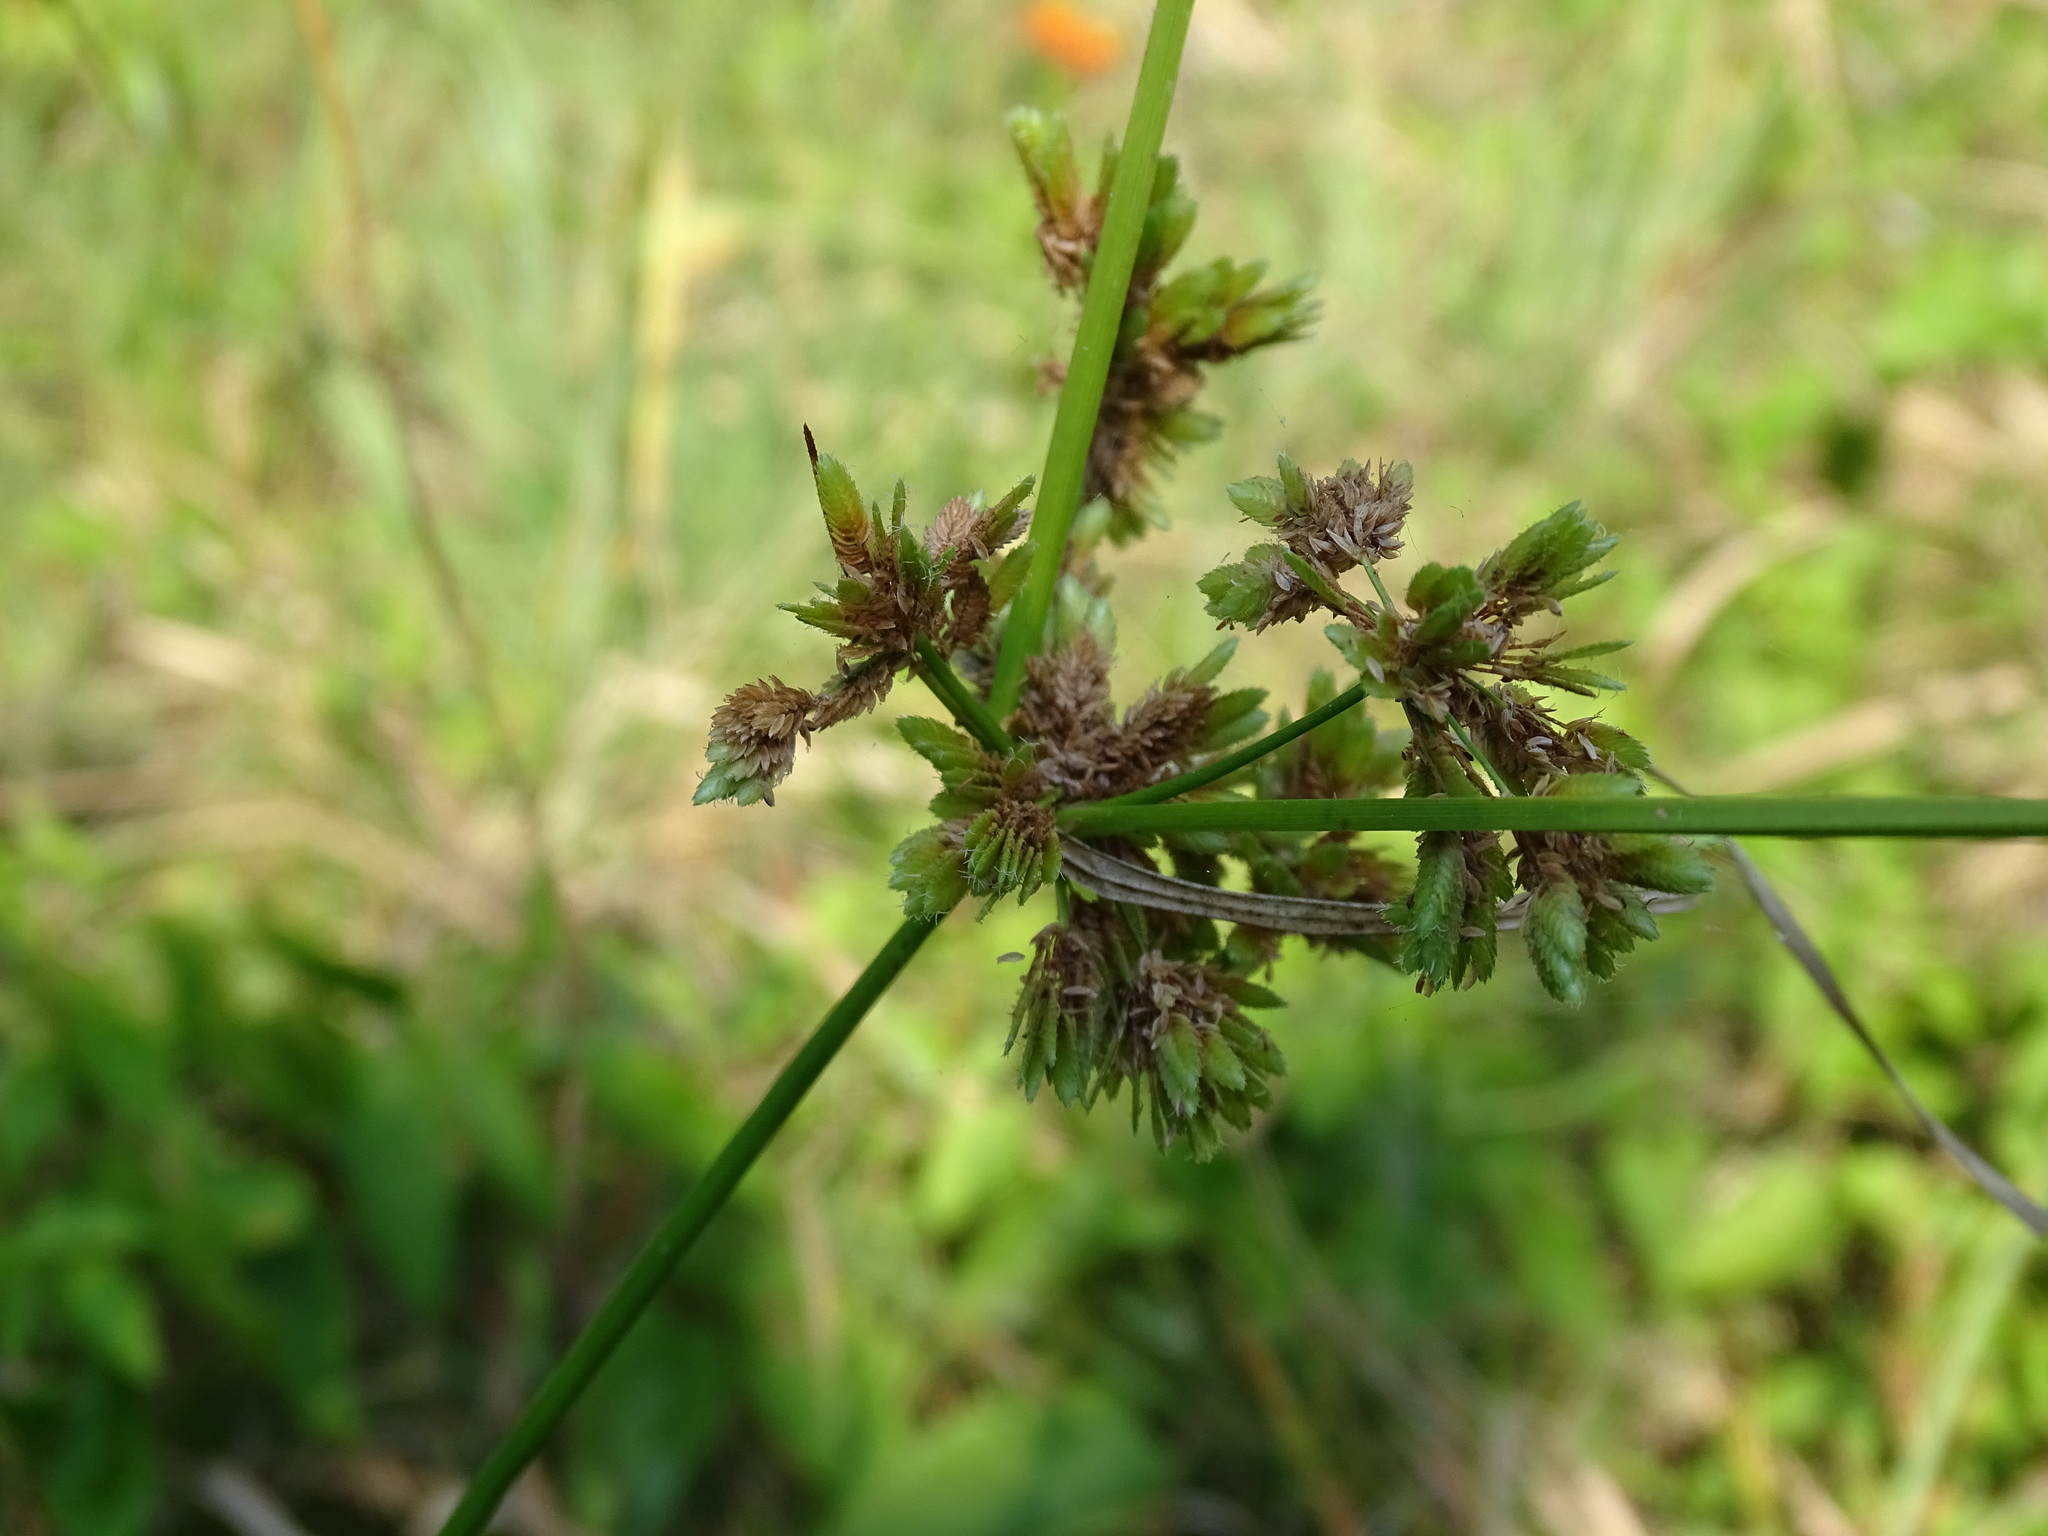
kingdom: Plantae
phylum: Tracheophyta
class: Liliopsida
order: Poales
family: Cyperaceae
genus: Cyperus
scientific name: Cyperus surinamensis
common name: Tropical flat sedge
